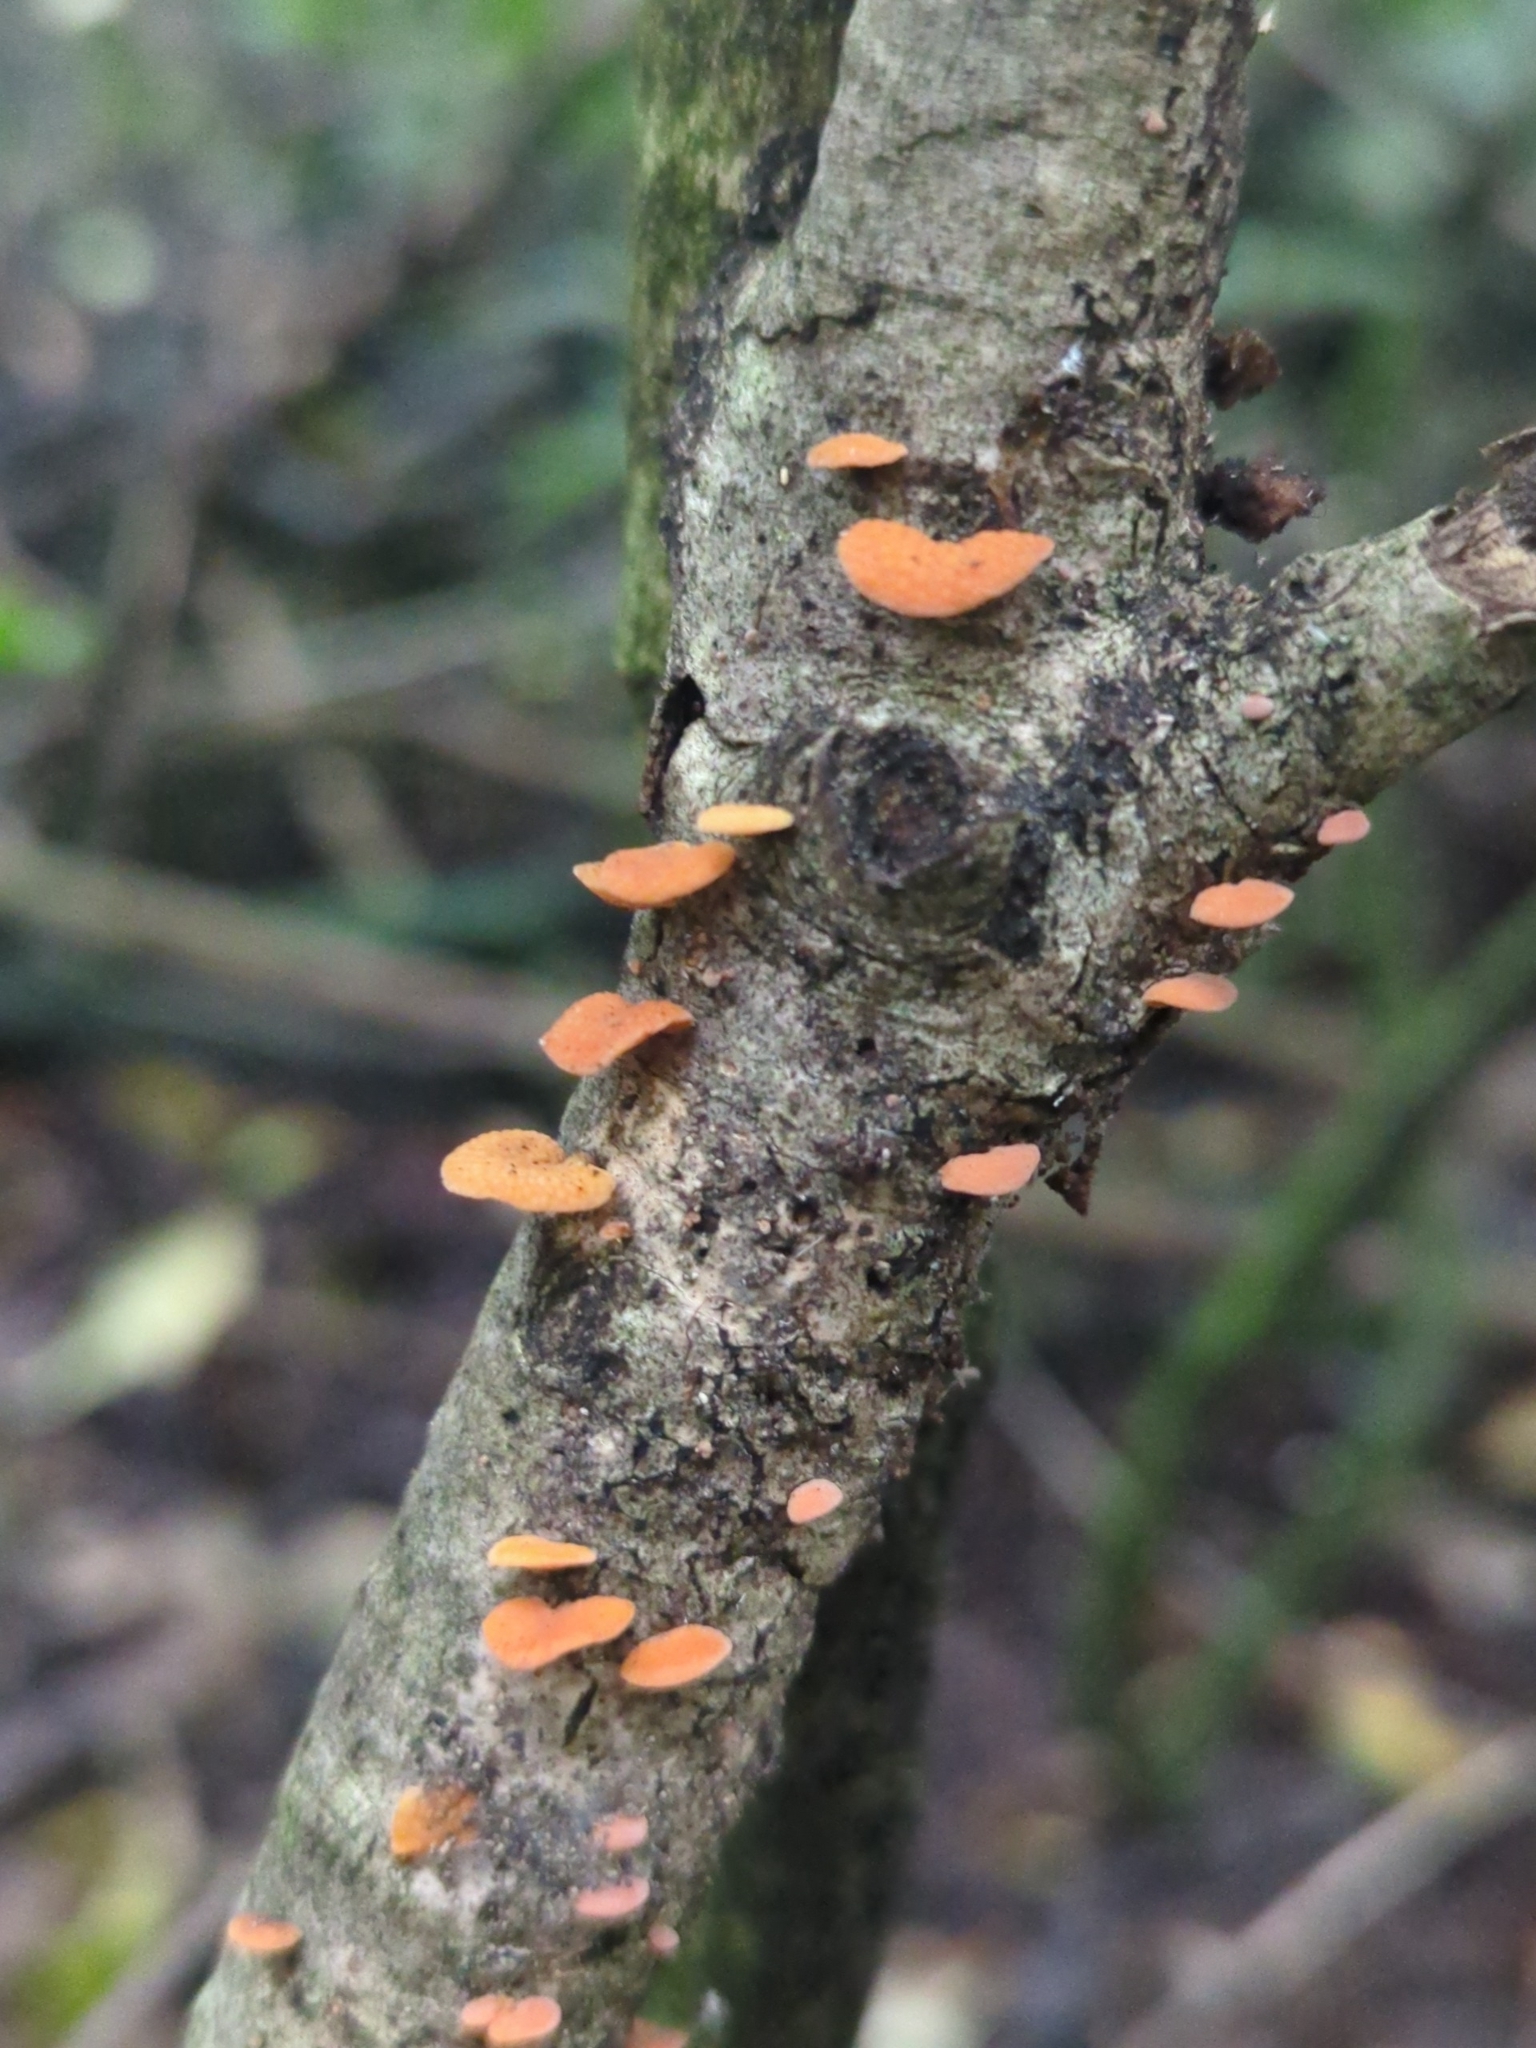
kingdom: Fungi
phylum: Basidiomycota
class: Agaricomycetes
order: Agaricales
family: Mycenaceae
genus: Favolaschia
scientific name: Favolaschia claudopus
